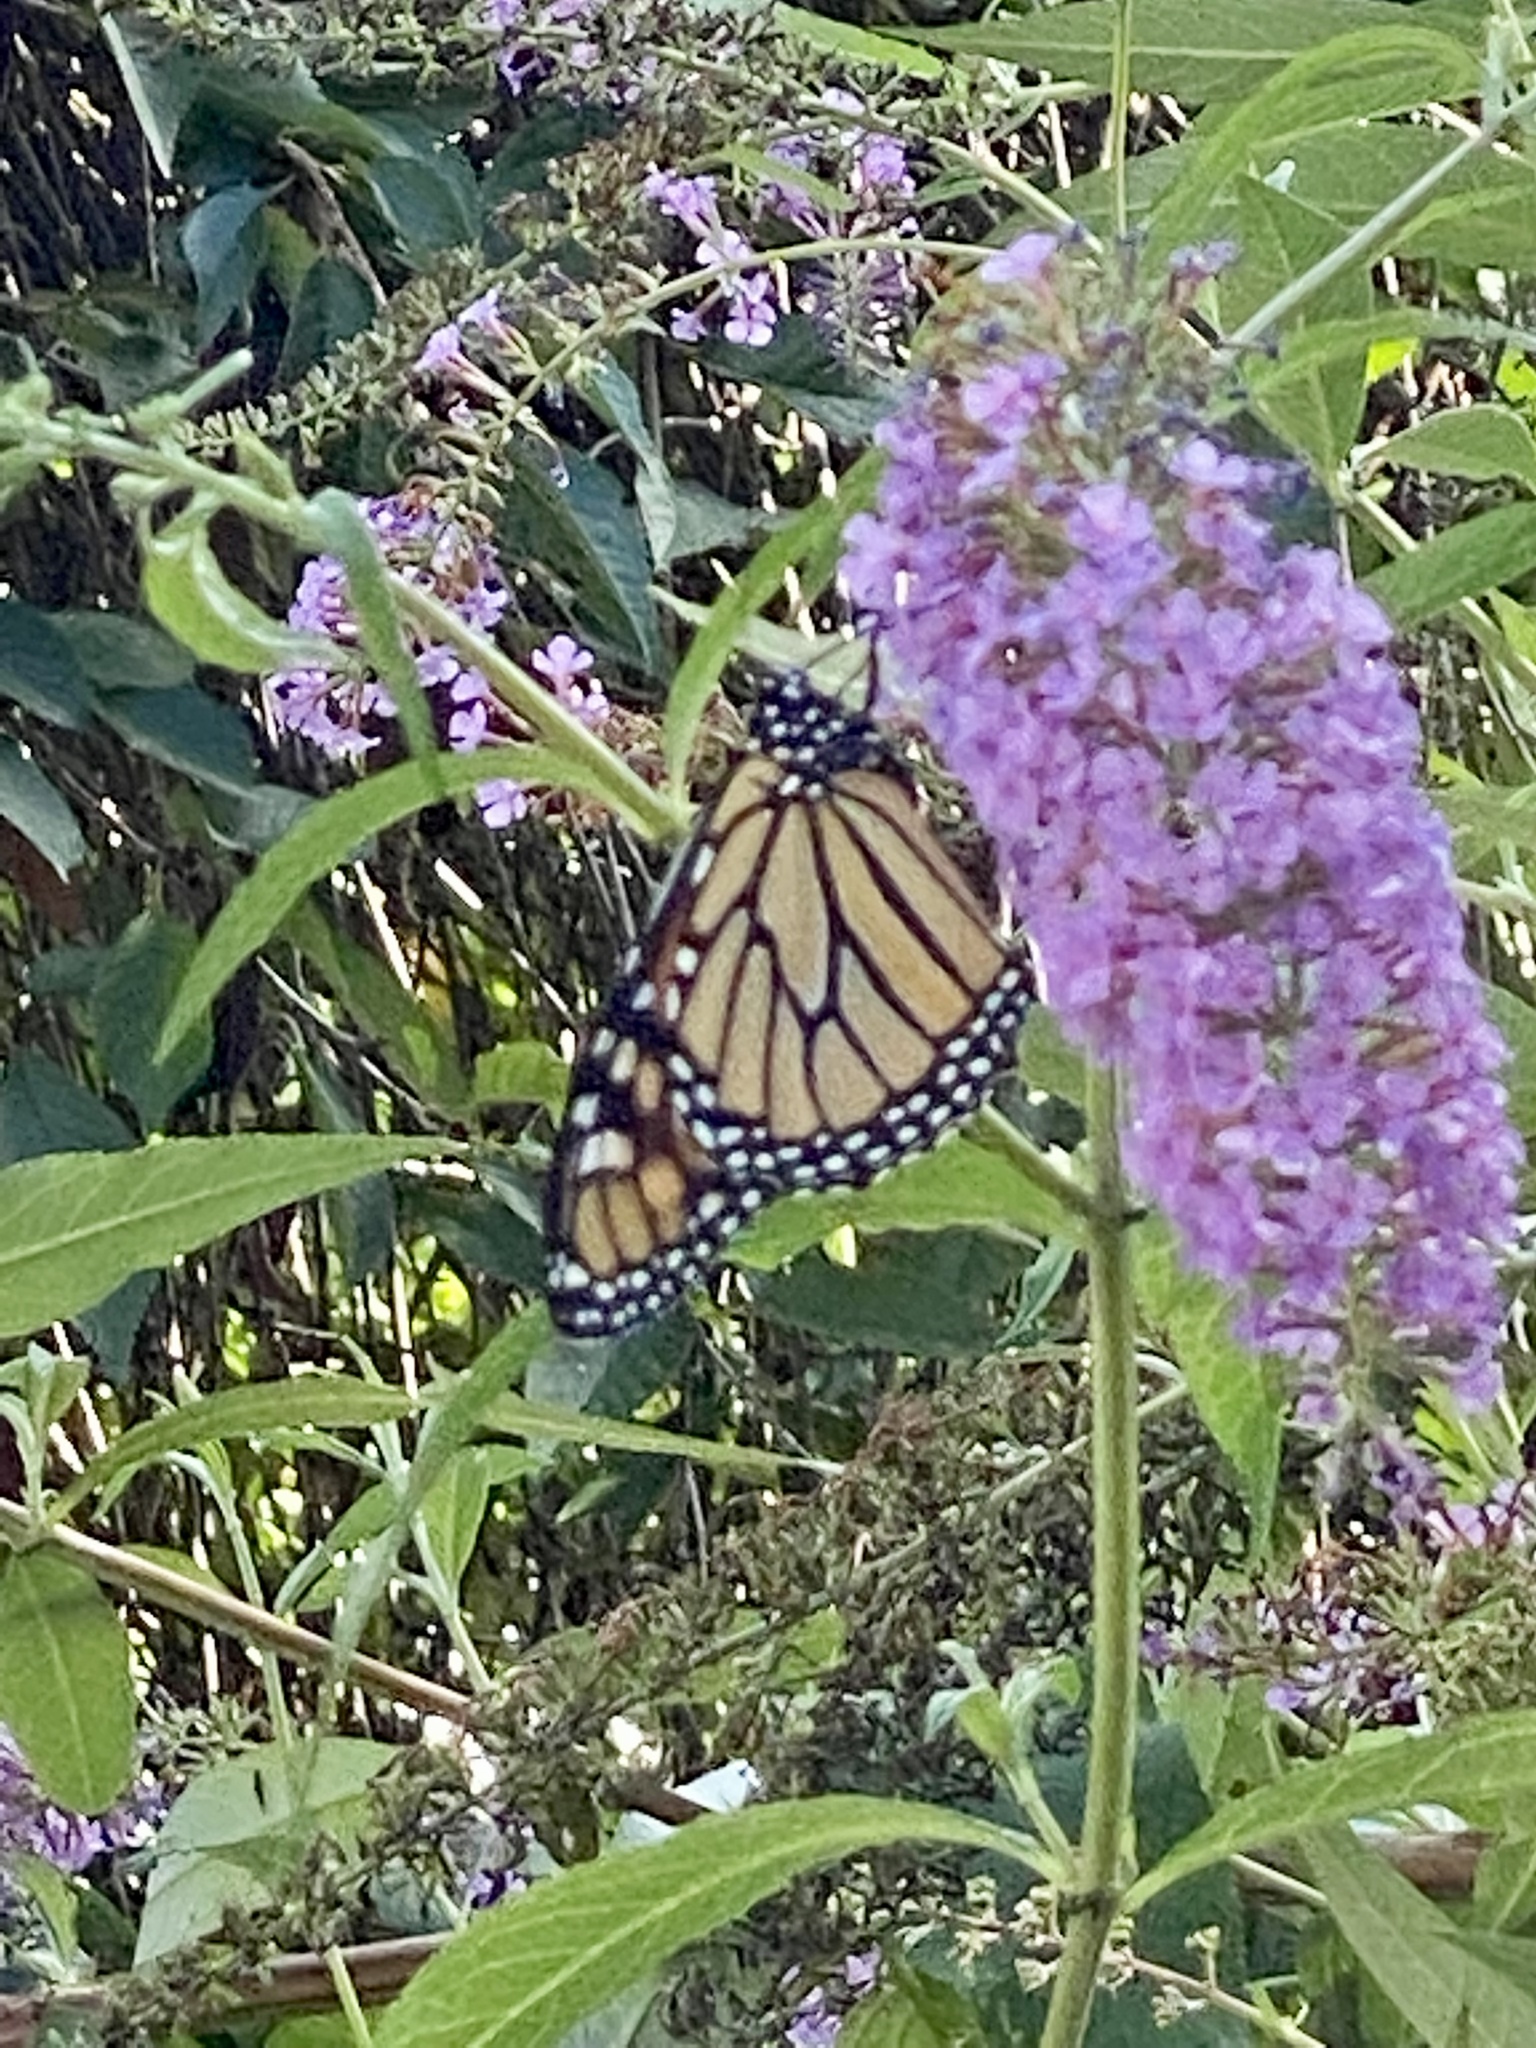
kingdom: Animalia
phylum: Arthropoda
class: Insecta
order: Lepidoptera
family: Nymphalidae
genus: Danaus
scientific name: Danaus plexippus
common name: Monarch
